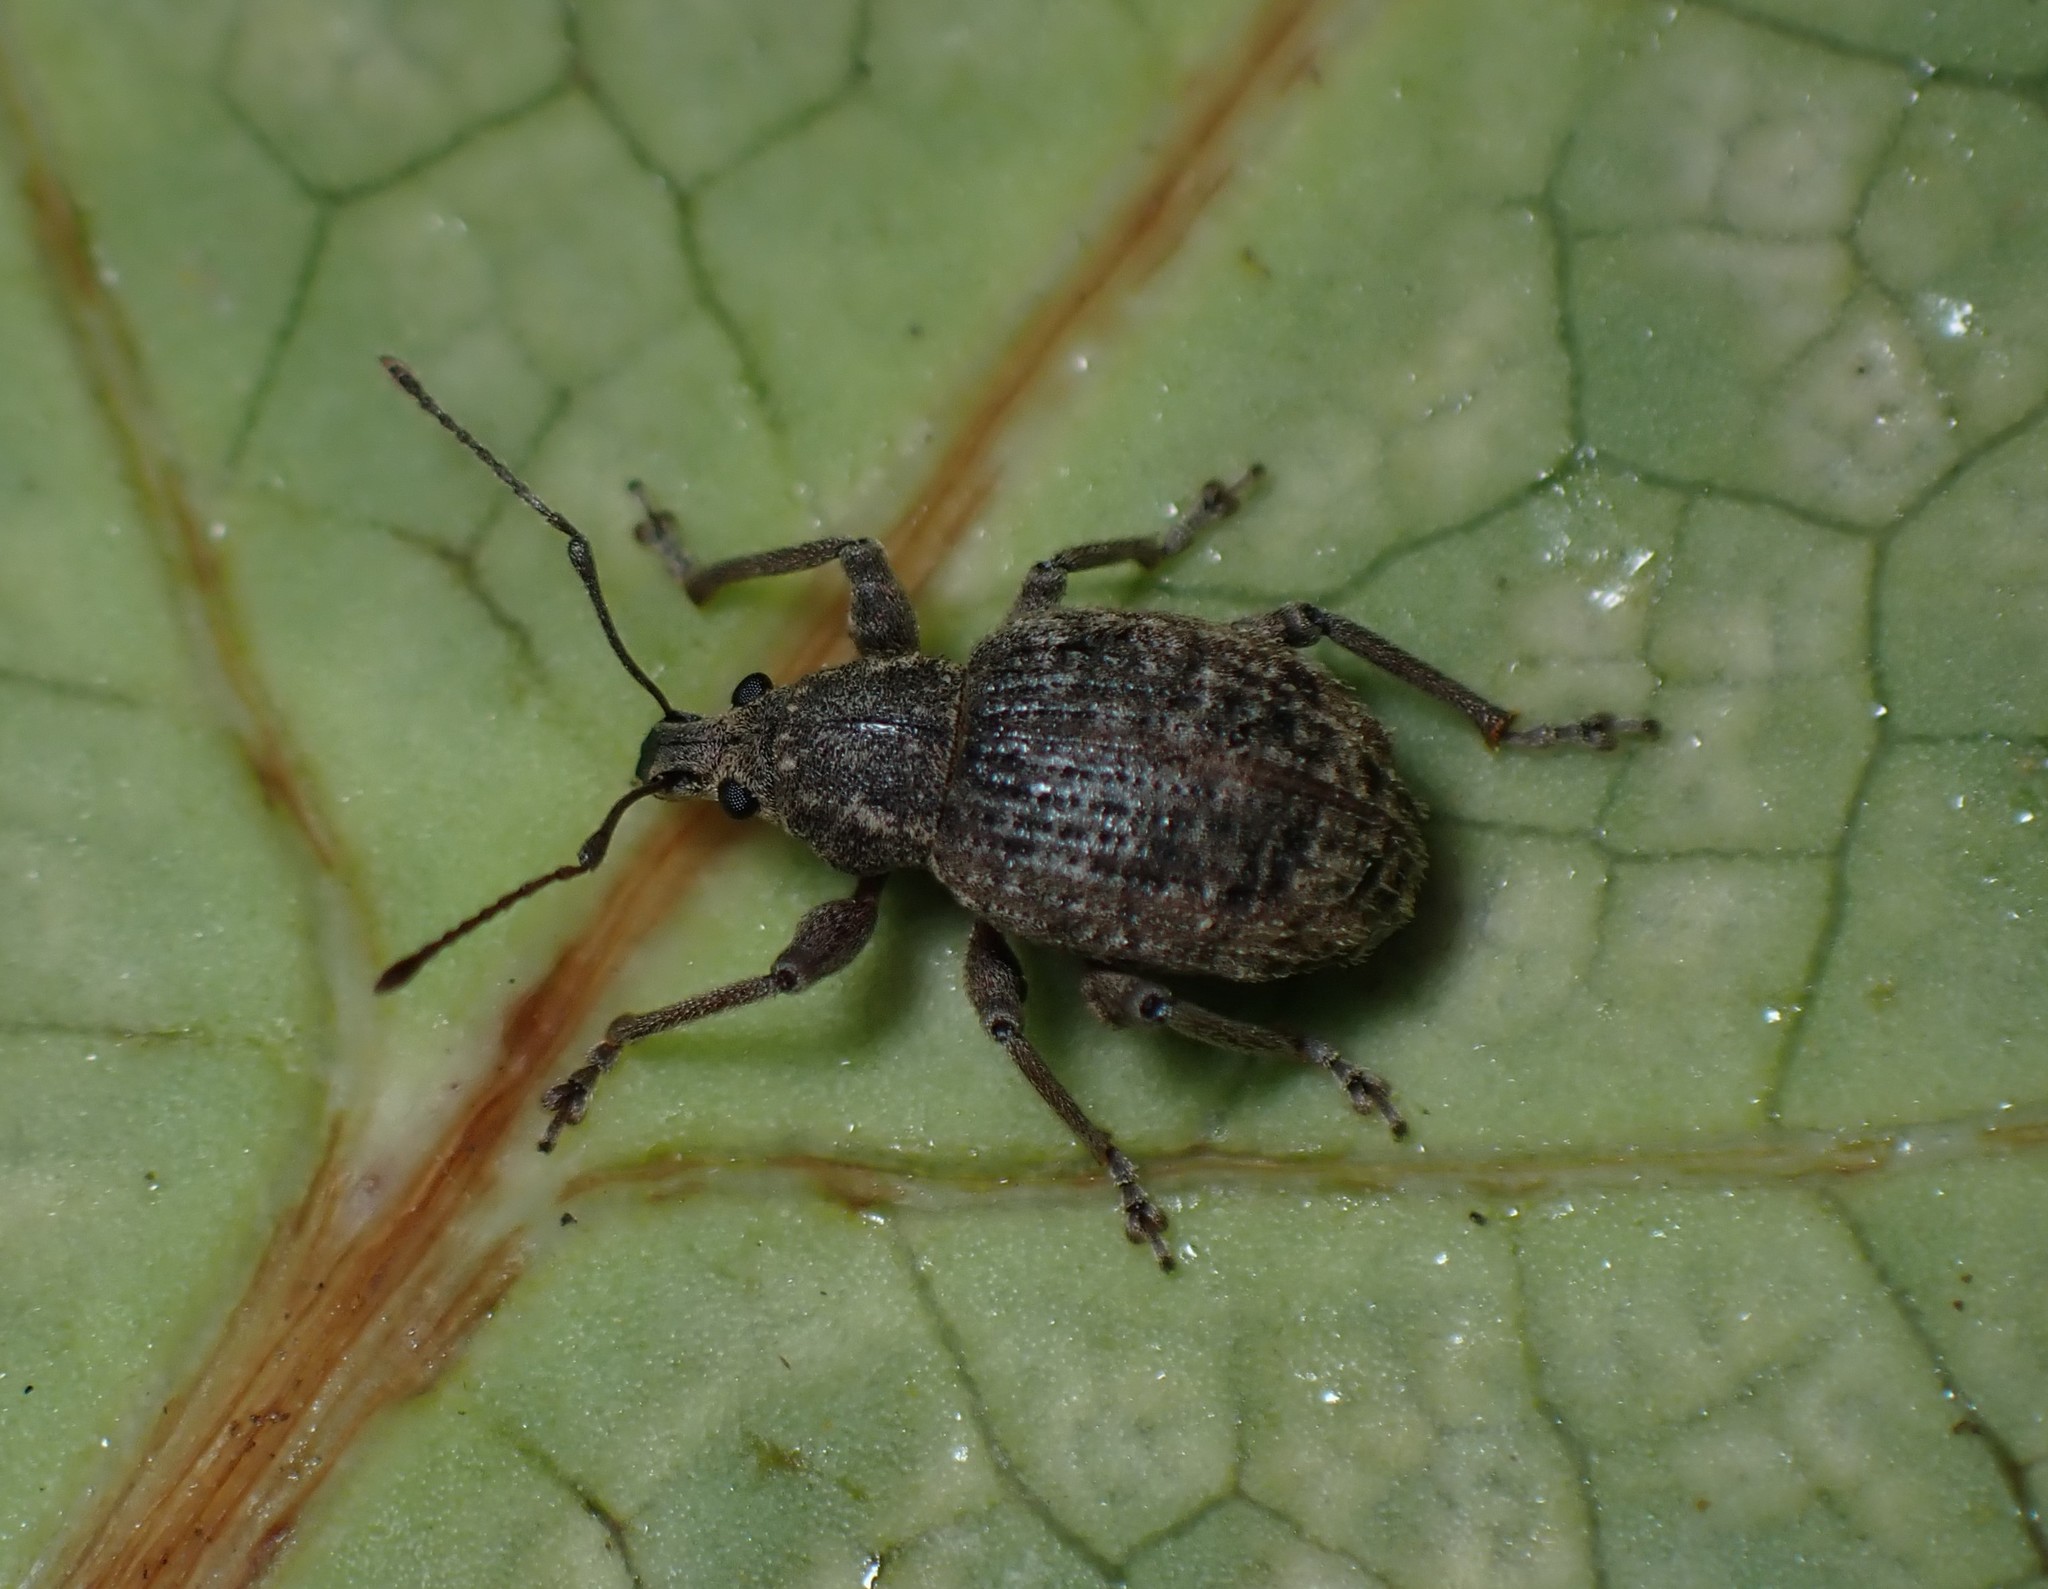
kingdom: Animalia
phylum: Arthropoda
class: Insecta
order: Coleoptera
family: Curculionidae
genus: Phlyctinus
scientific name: Phlyctinus callosus
